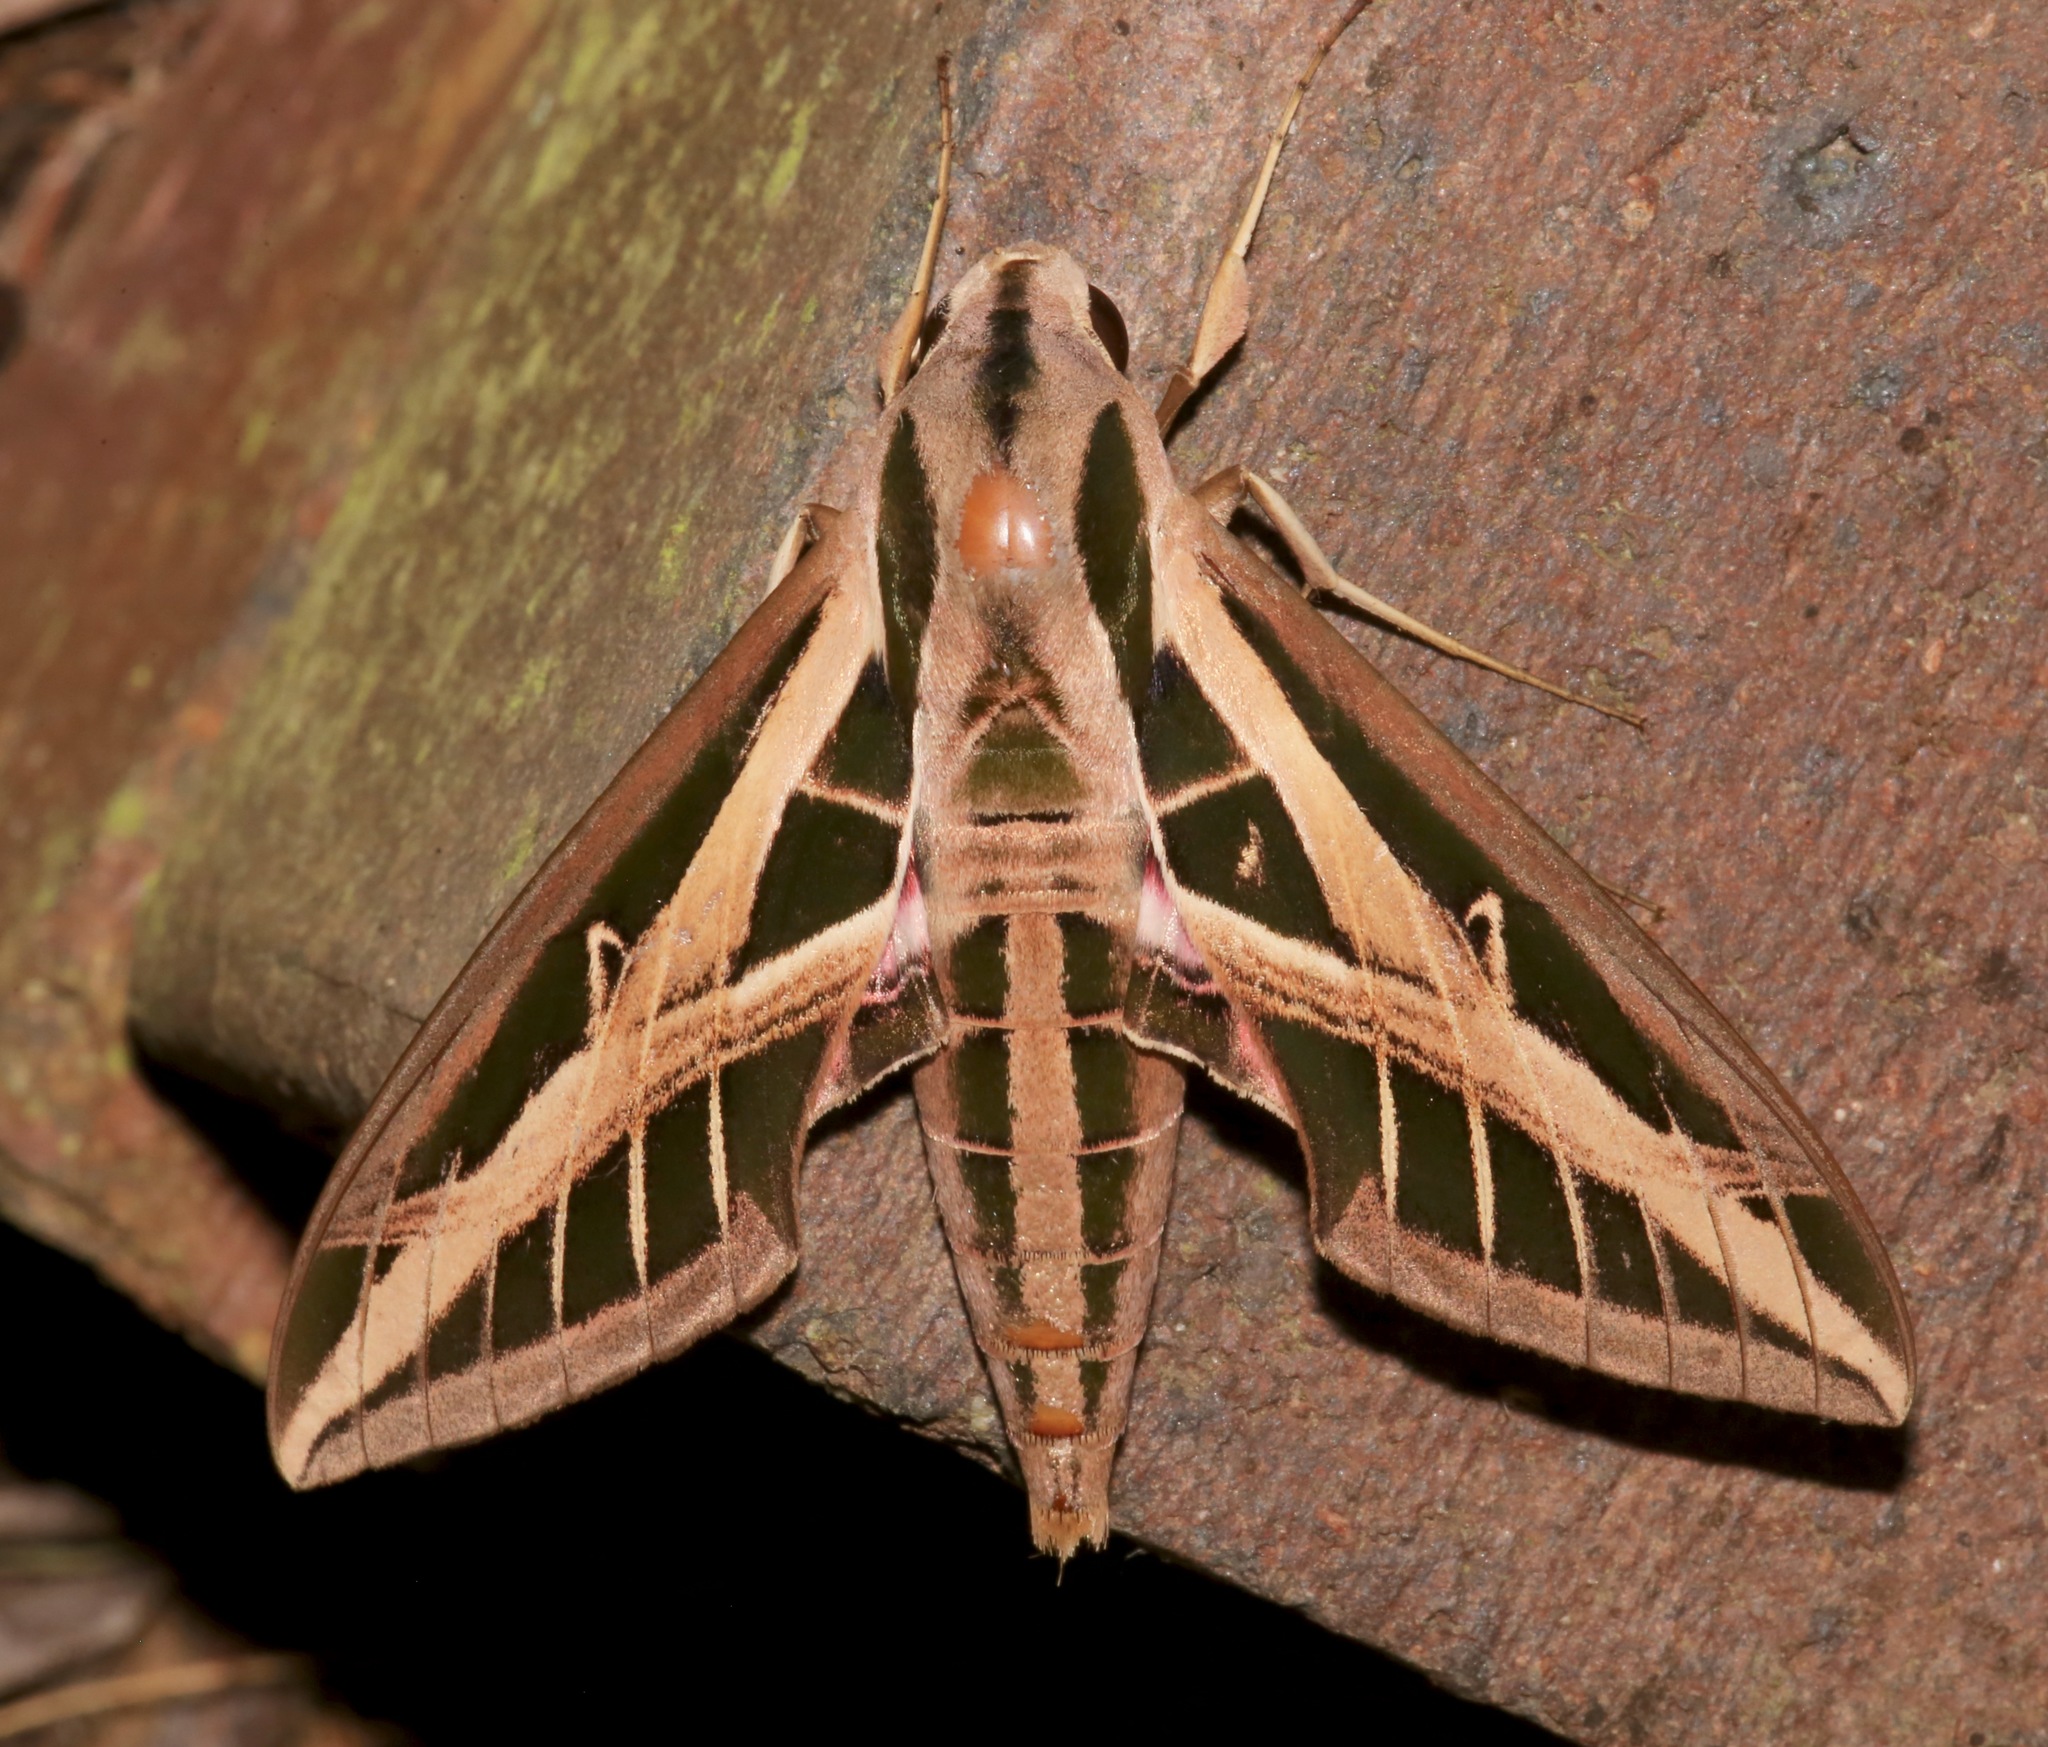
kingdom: Animalia
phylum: Arthropoda
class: Insecta
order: Lepidoptera
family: Sphingidae
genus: Eumorpha
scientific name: Eumorpha fasciatus
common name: Banded sphinx
